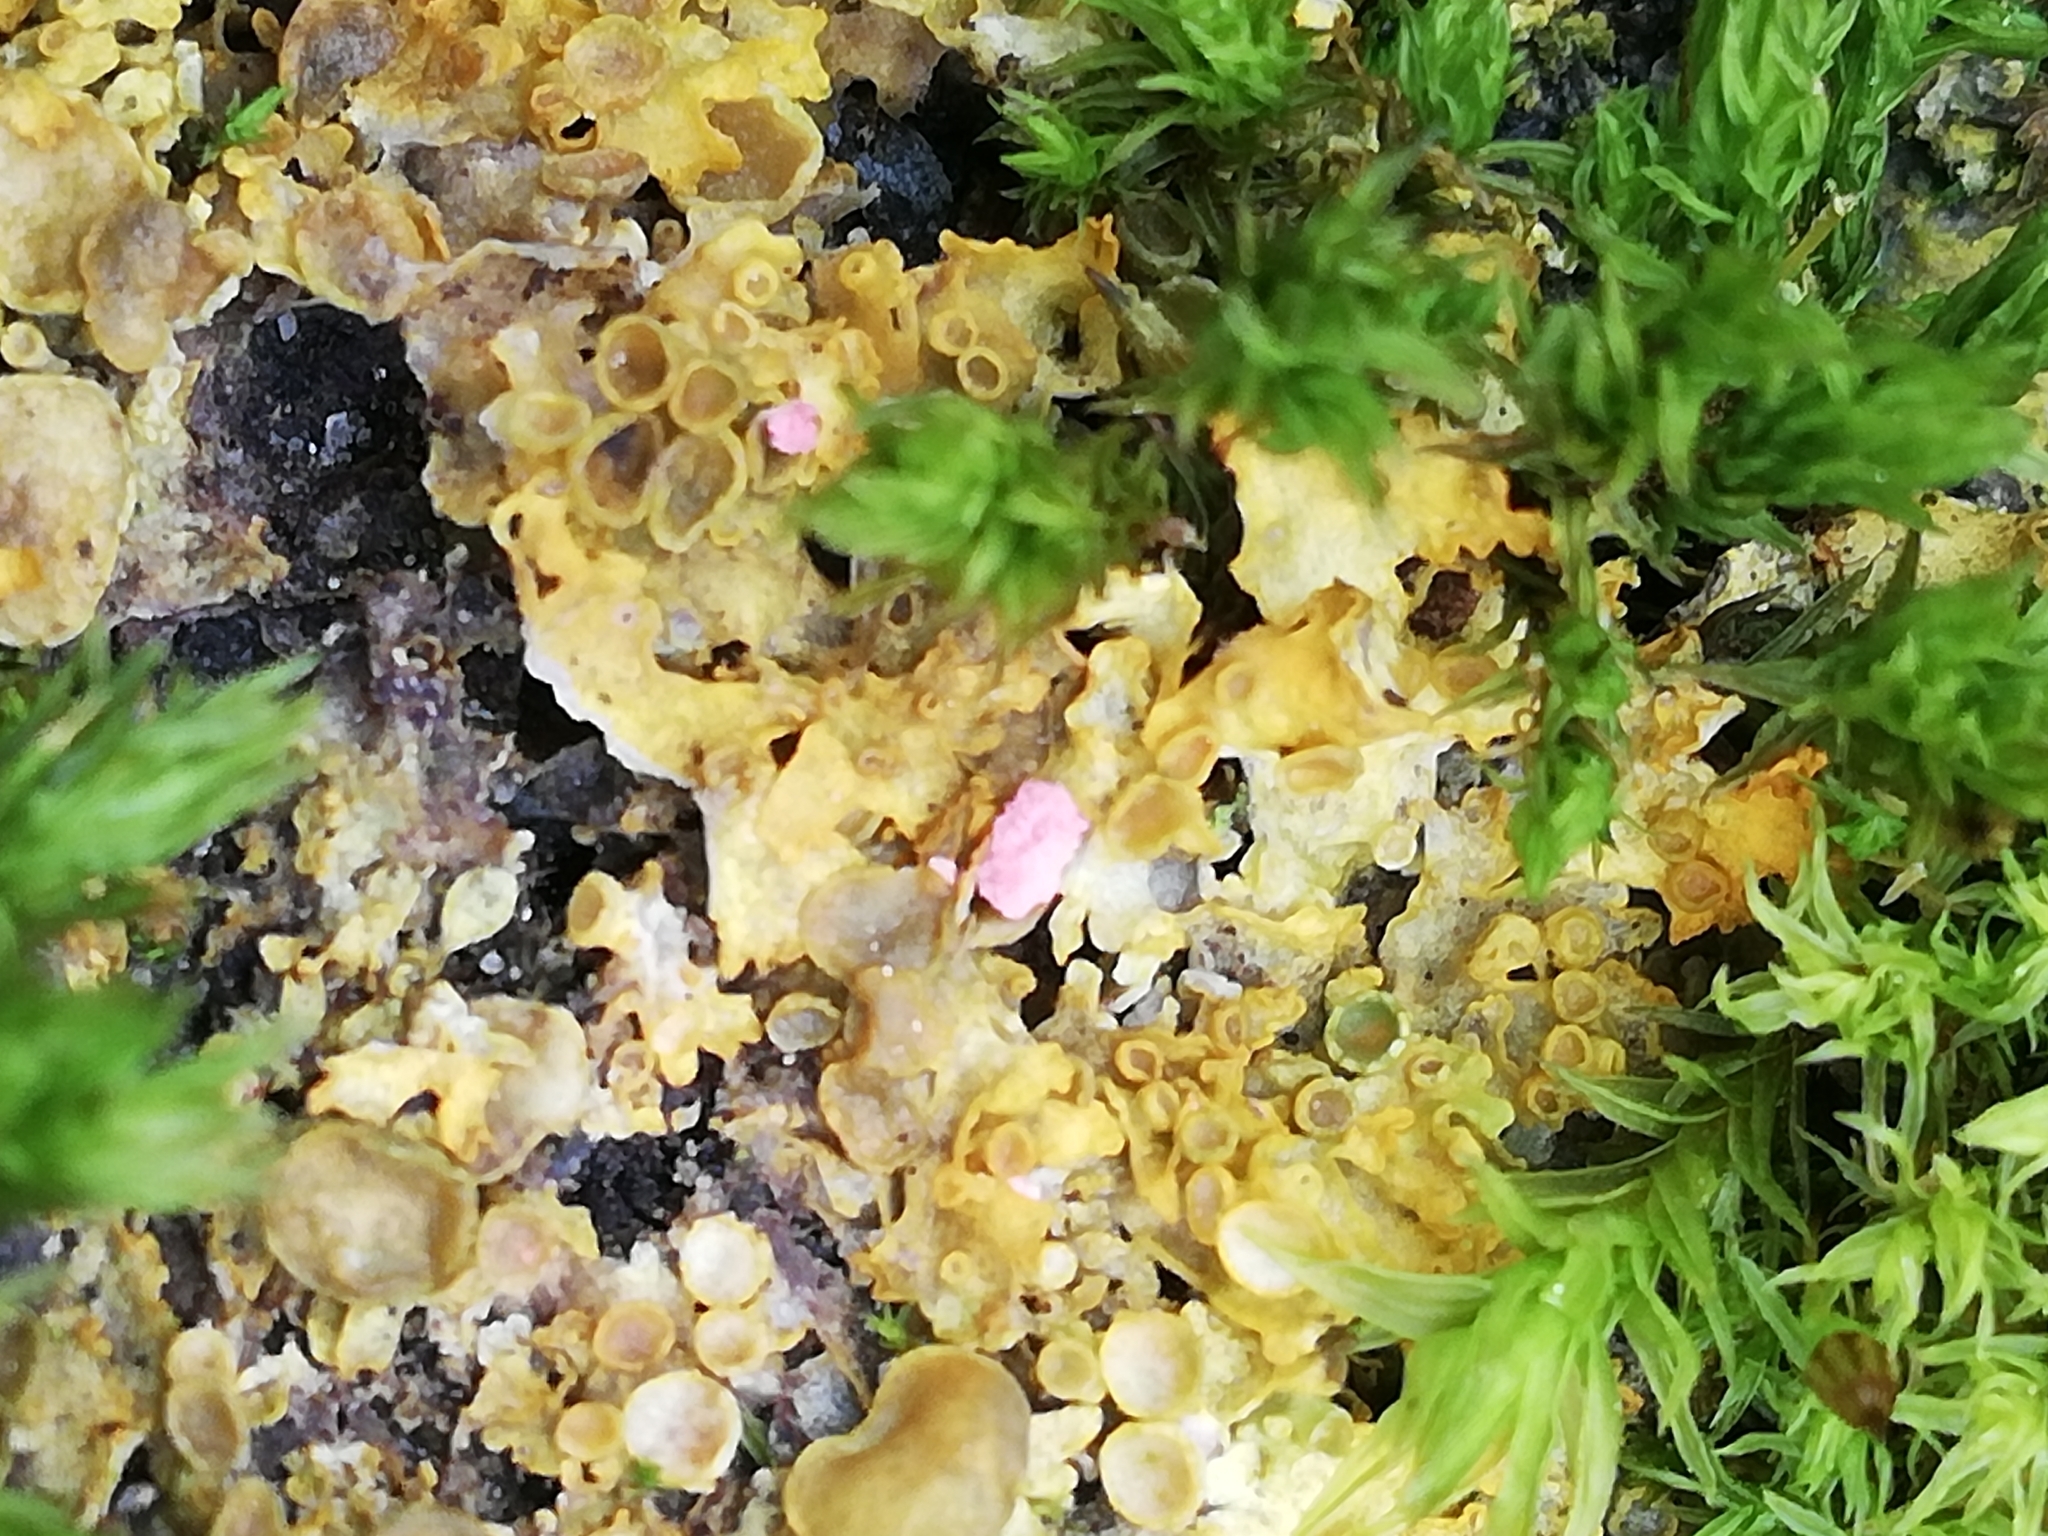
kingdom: Fungi
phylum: Ascomycota
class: Lecanoromycetes
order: Teloschistales
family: Teloschistaceae
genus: Xanthoria
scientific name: Xanthoria parietina
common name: Common orange lichen
